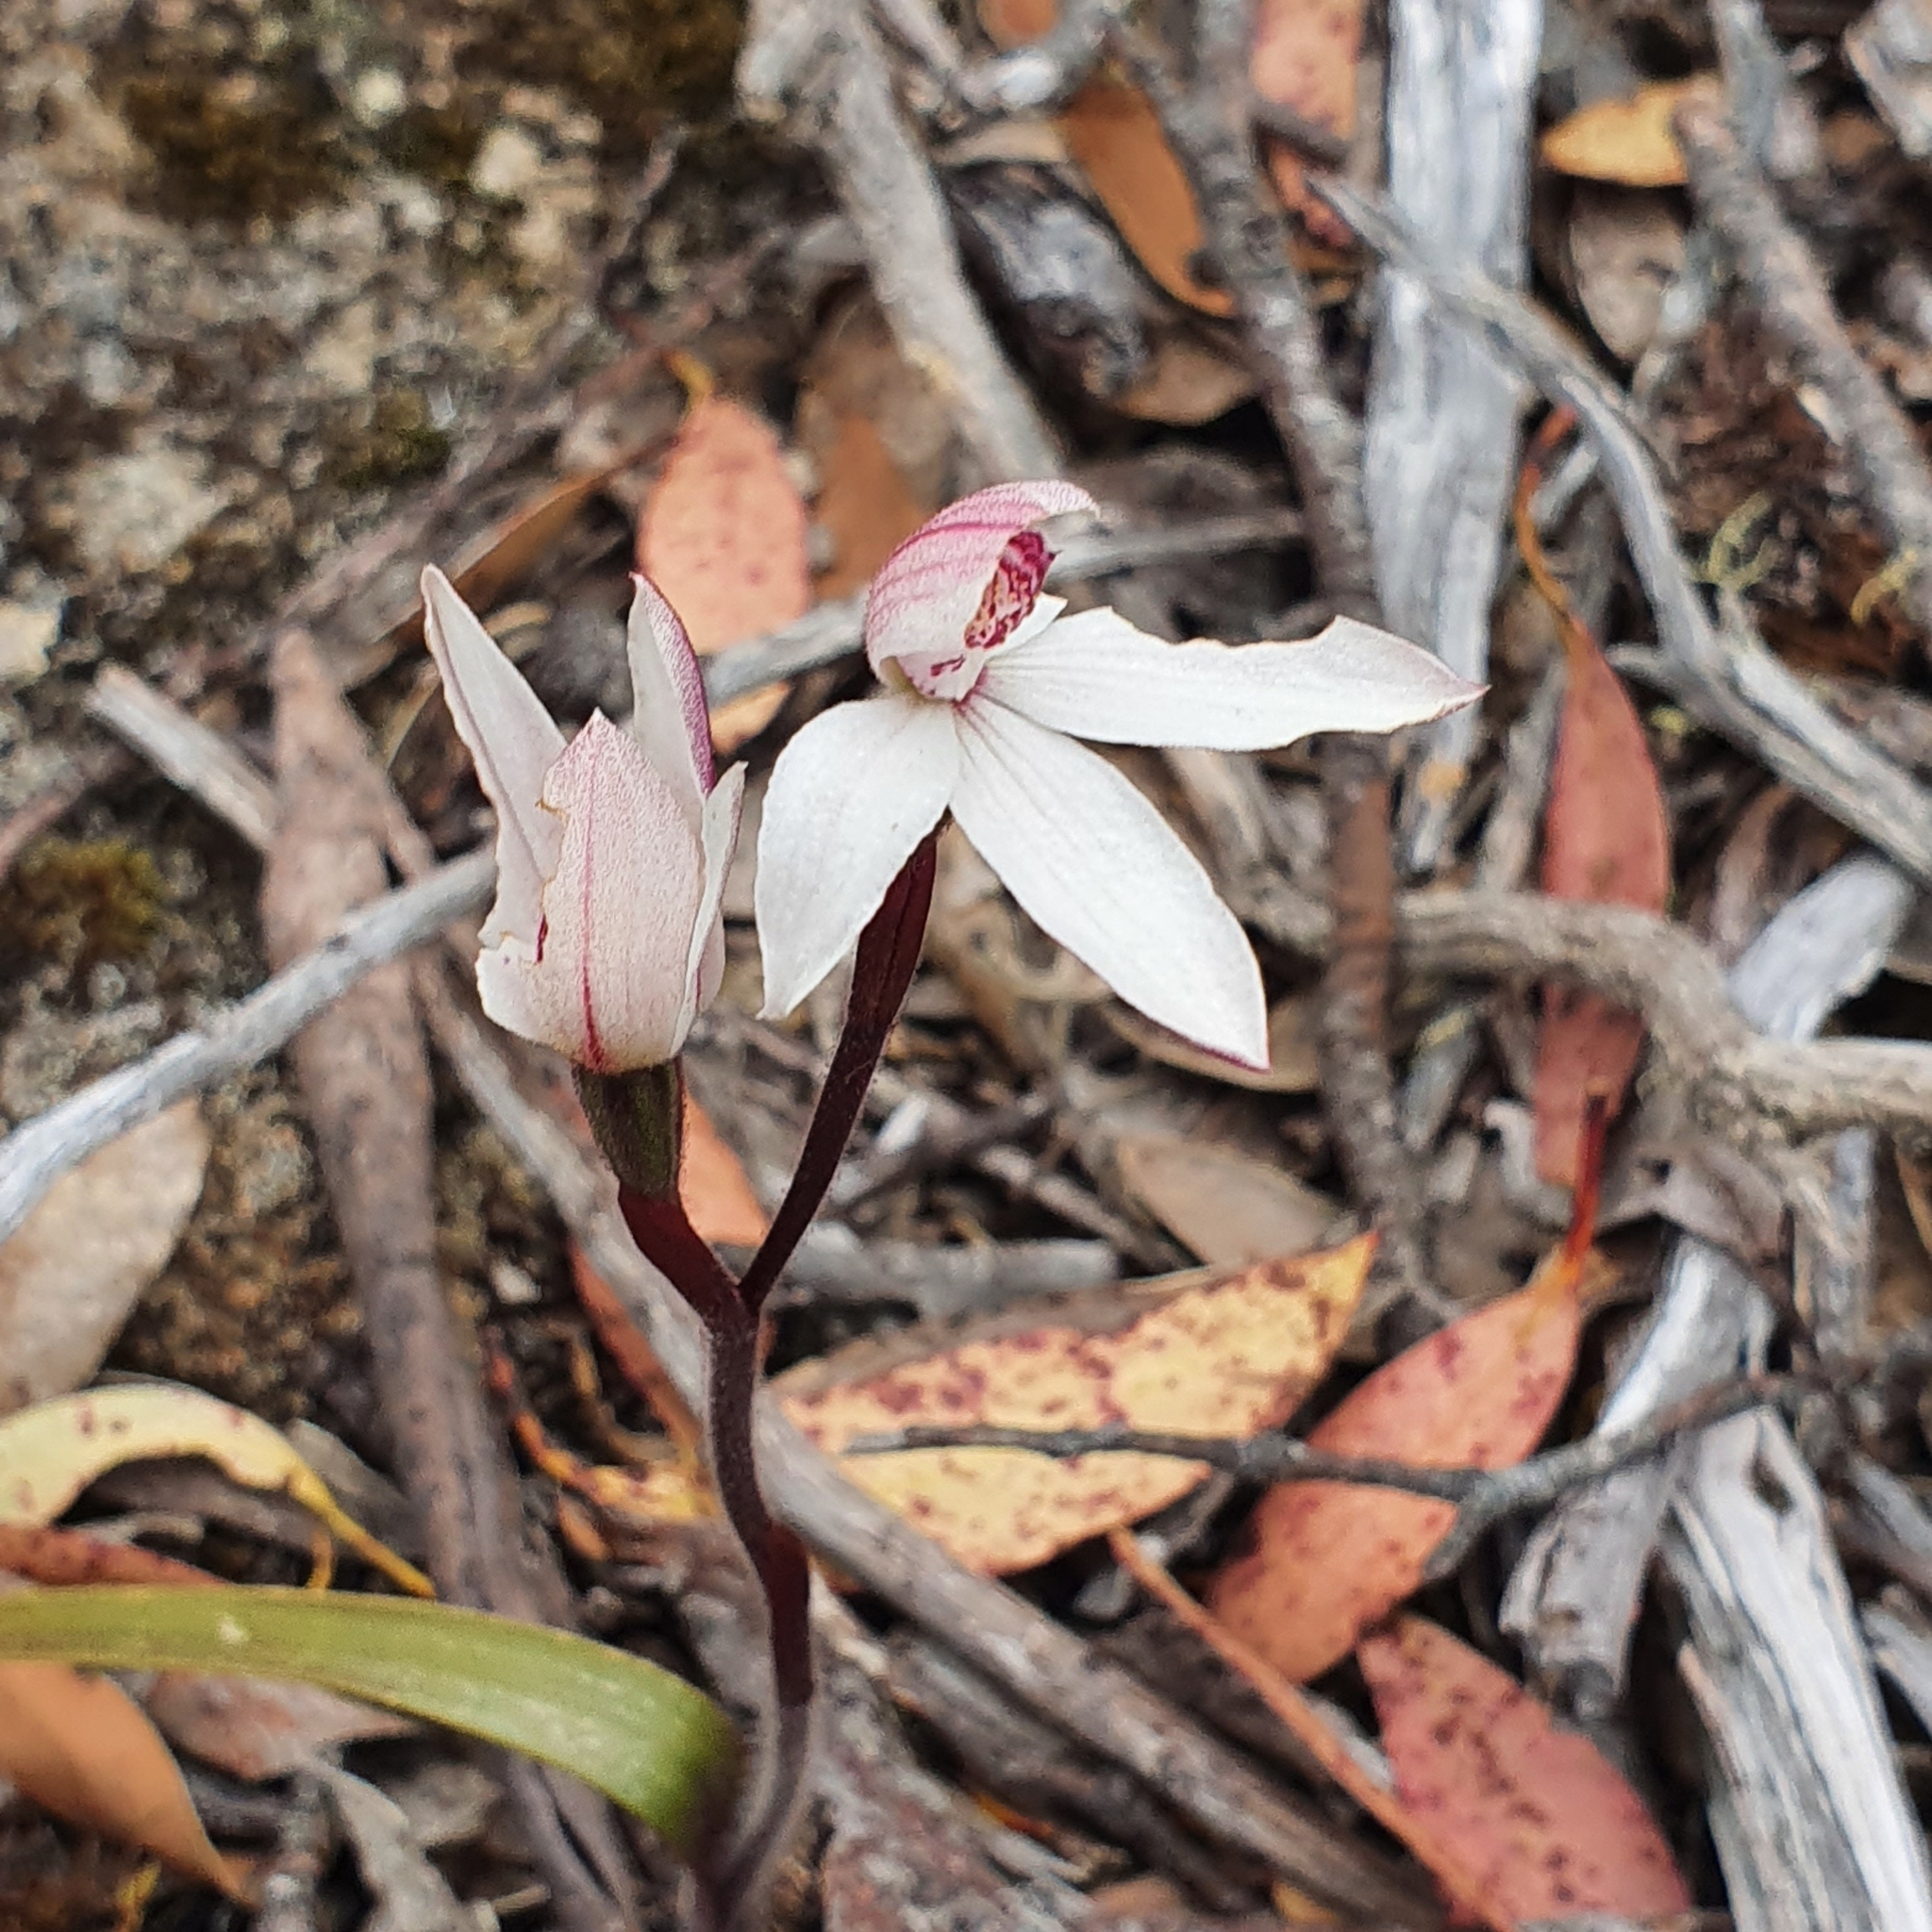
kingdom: Plantae
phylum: Tracheophyta
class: Liliopsida
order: Asparagales
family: Orchidaceae
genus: Caladenia
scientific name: Caladenia alpina
